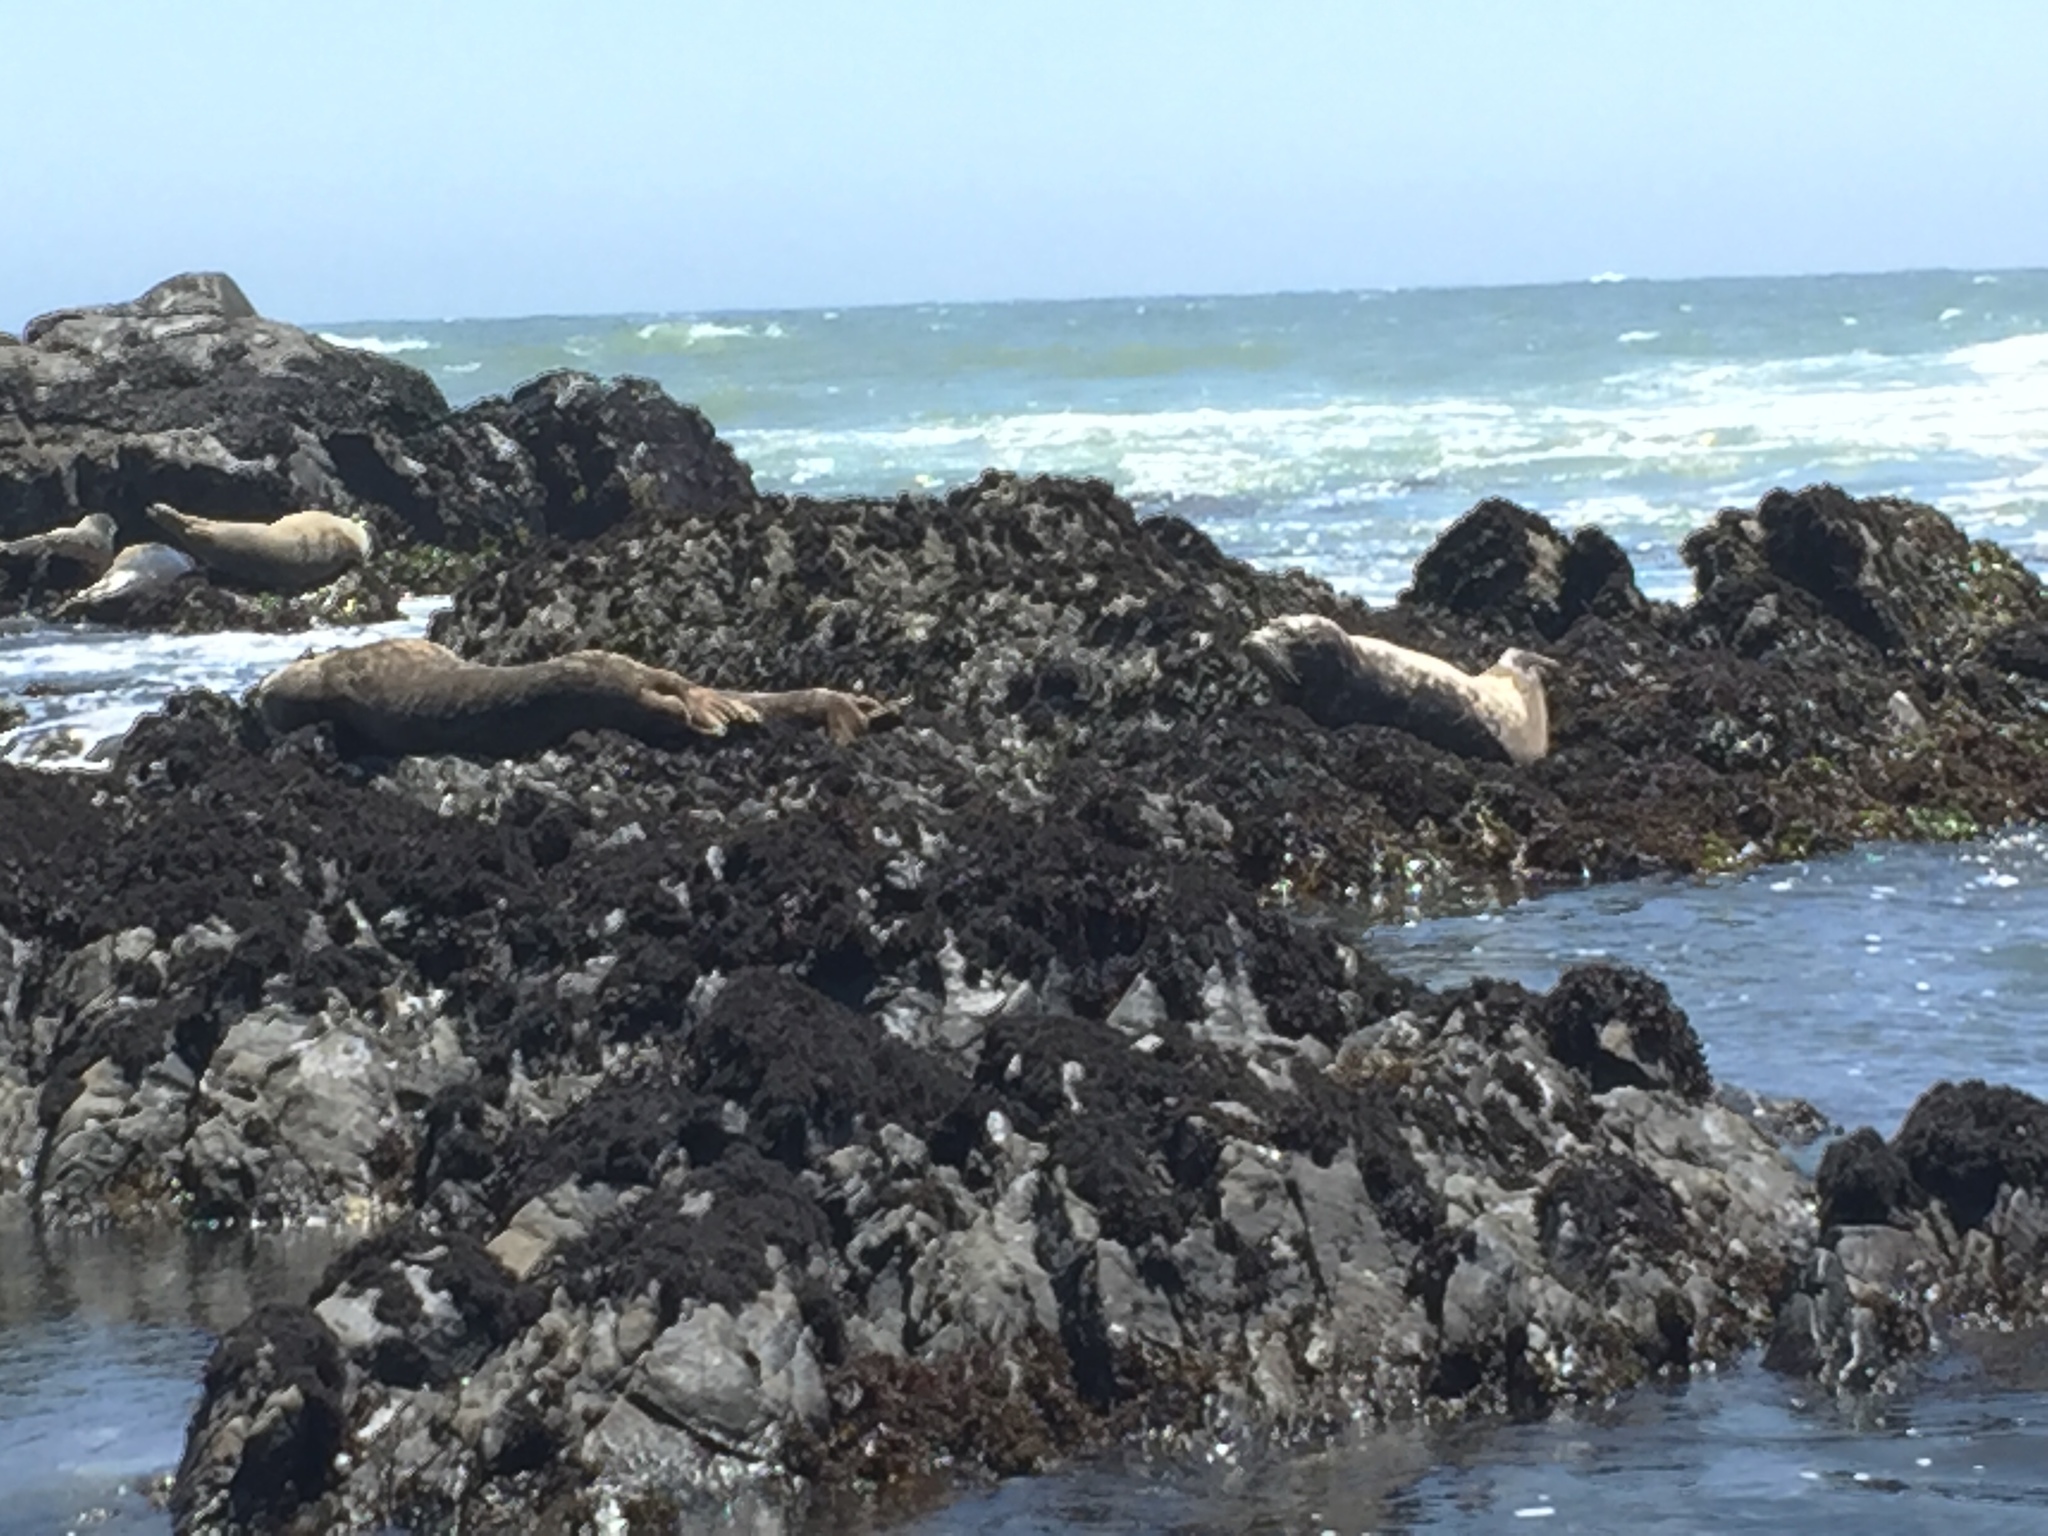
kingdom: Animalia
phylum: Chordata
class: Mammalia
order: Carnivora
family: Phocidae
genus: Phoca
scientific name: Phoca vitulina
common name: Harbor seal
